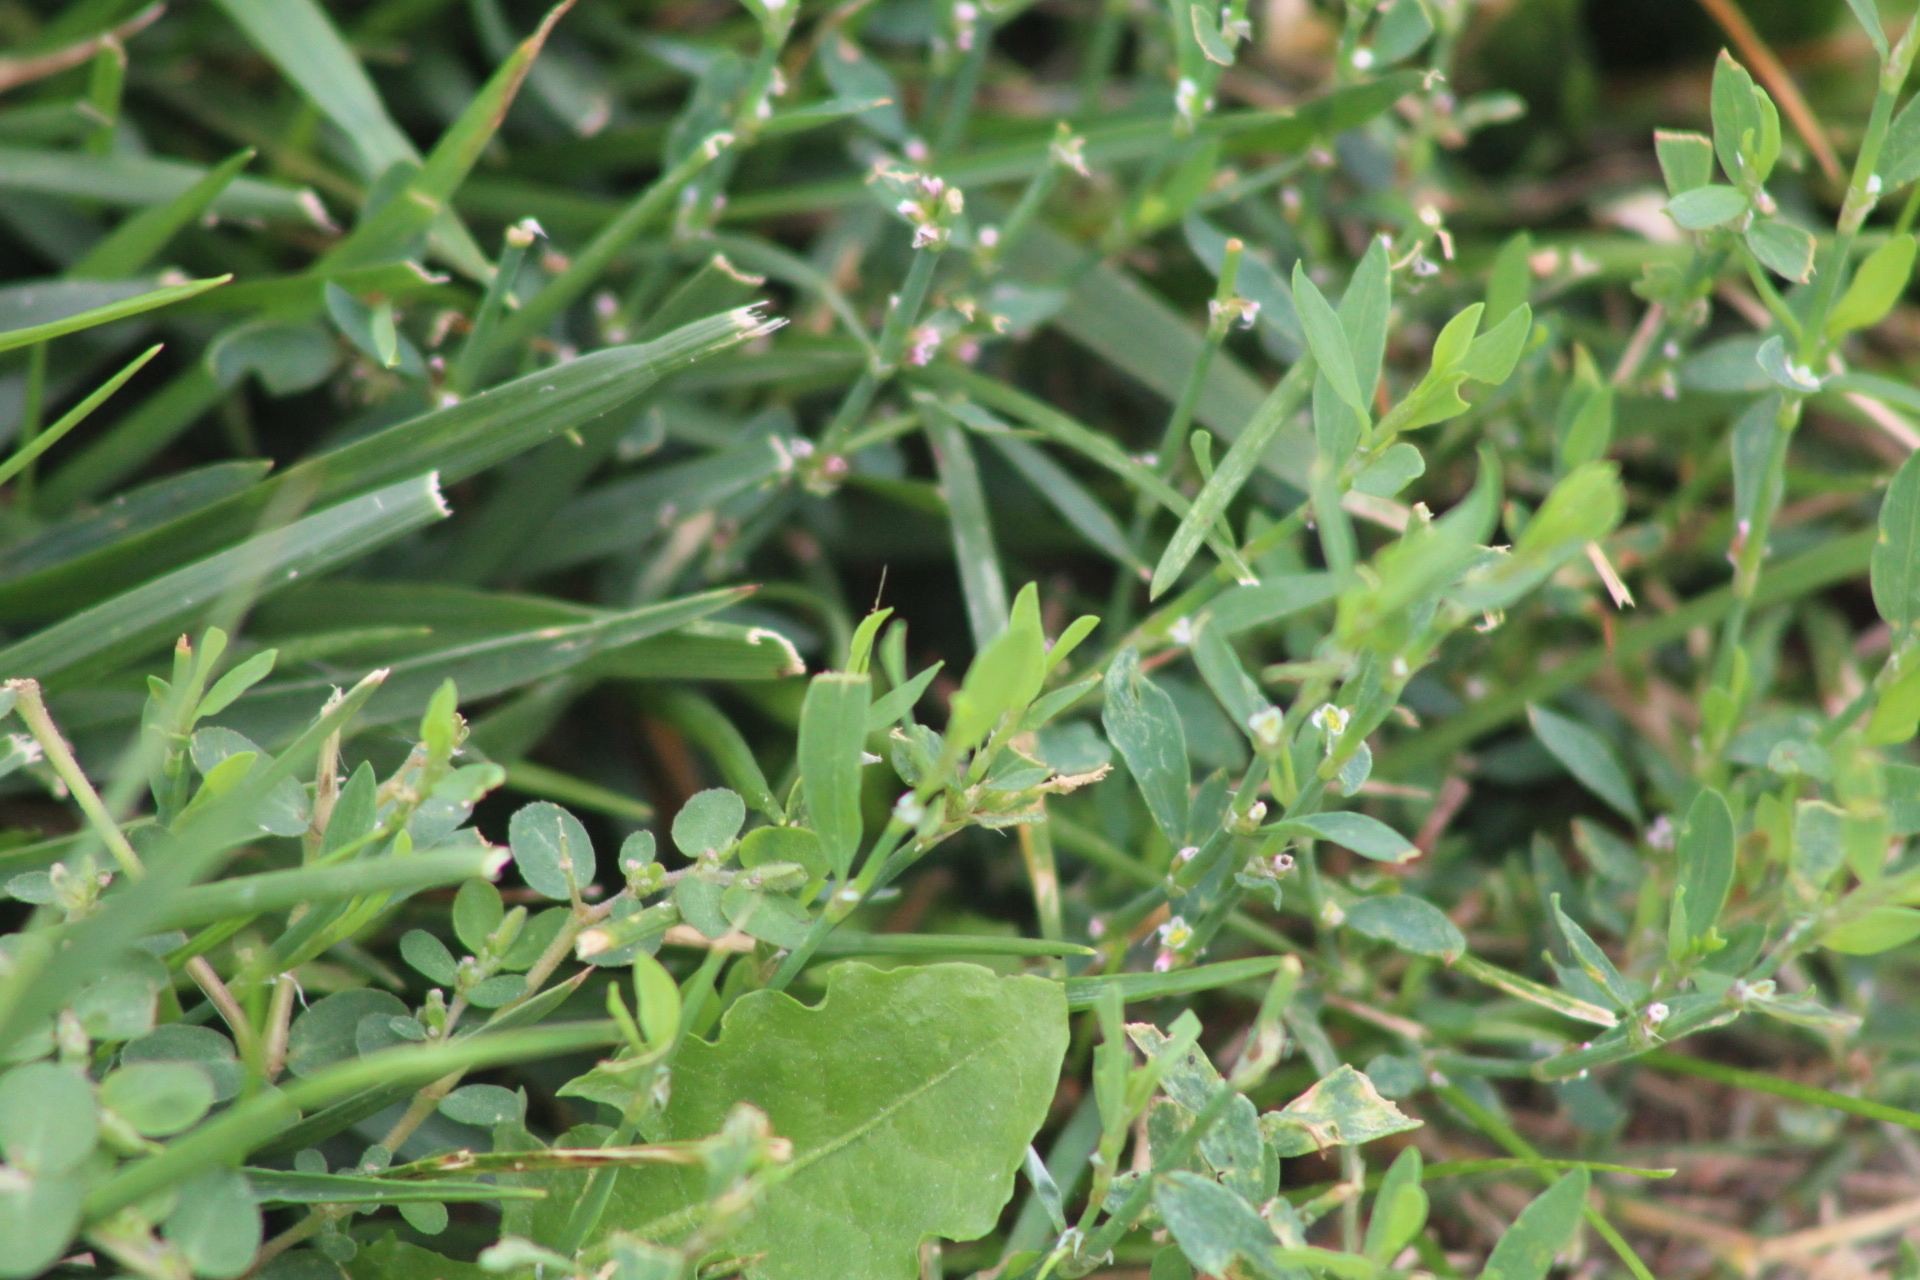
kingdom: Plantae
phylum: Tracheophyta
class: Magnoliopsida
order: Caryophyllales
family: Polygonaceae
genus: Polygonum
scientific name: Polygonum aviculare
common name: Prostrate knotweed
